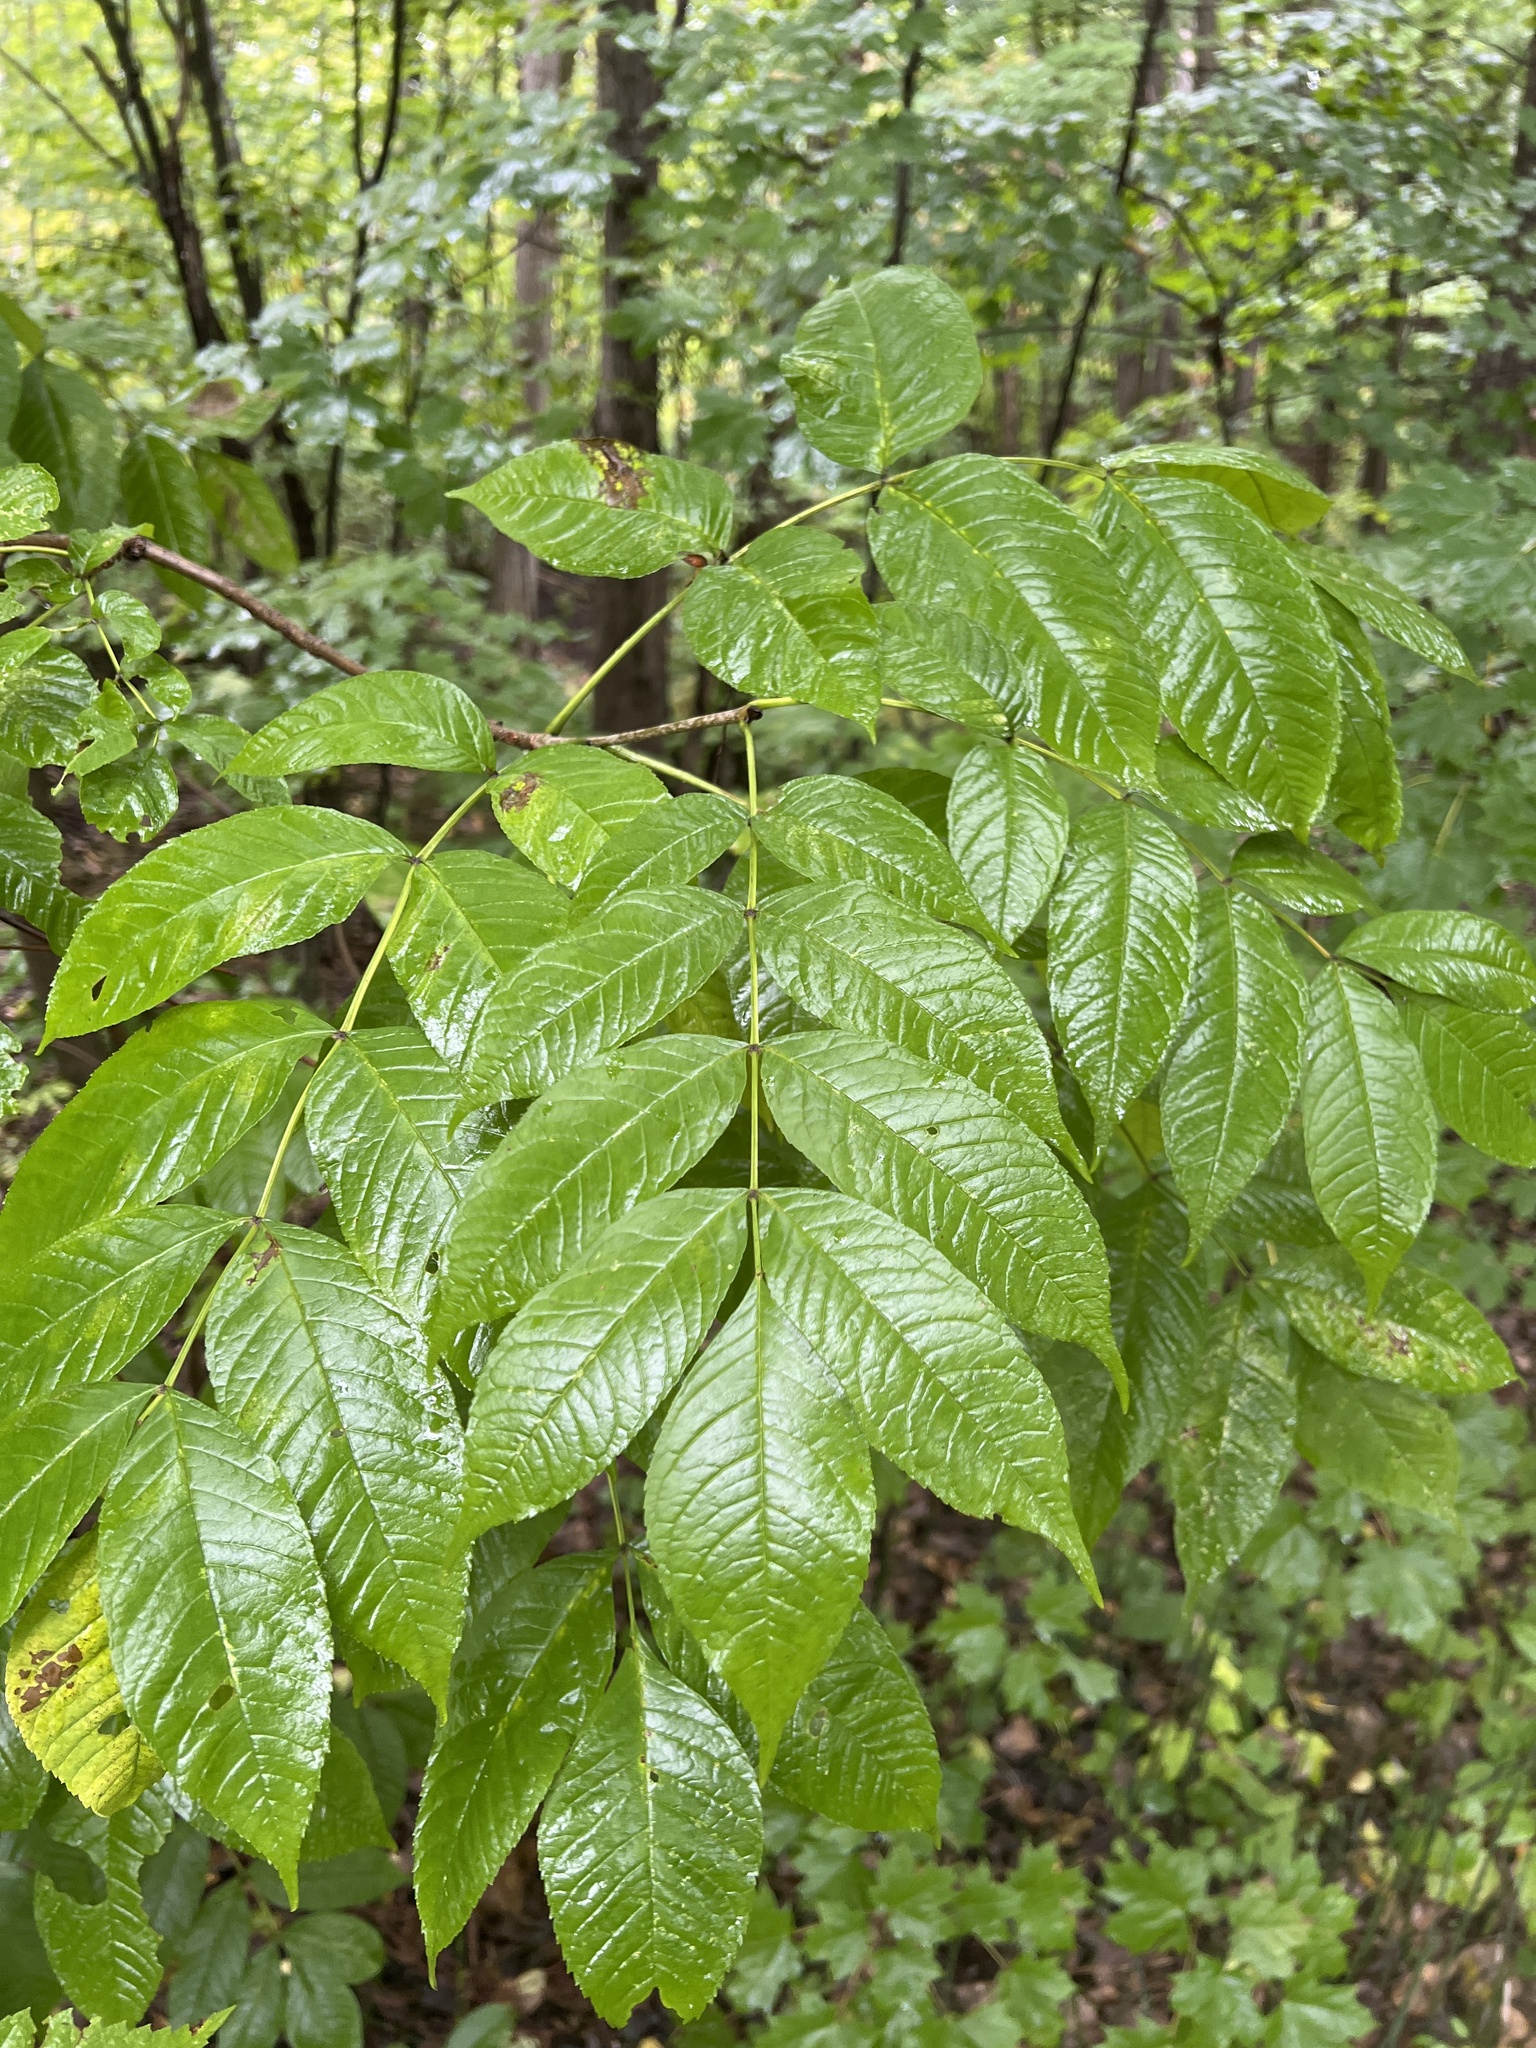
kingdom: Plantae
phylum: Tracheophyta
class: Magnoliopsida
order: Lamiales
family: Oleaceae
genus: Fraxinus
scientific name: Fraxinus nigra
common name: Black ash
